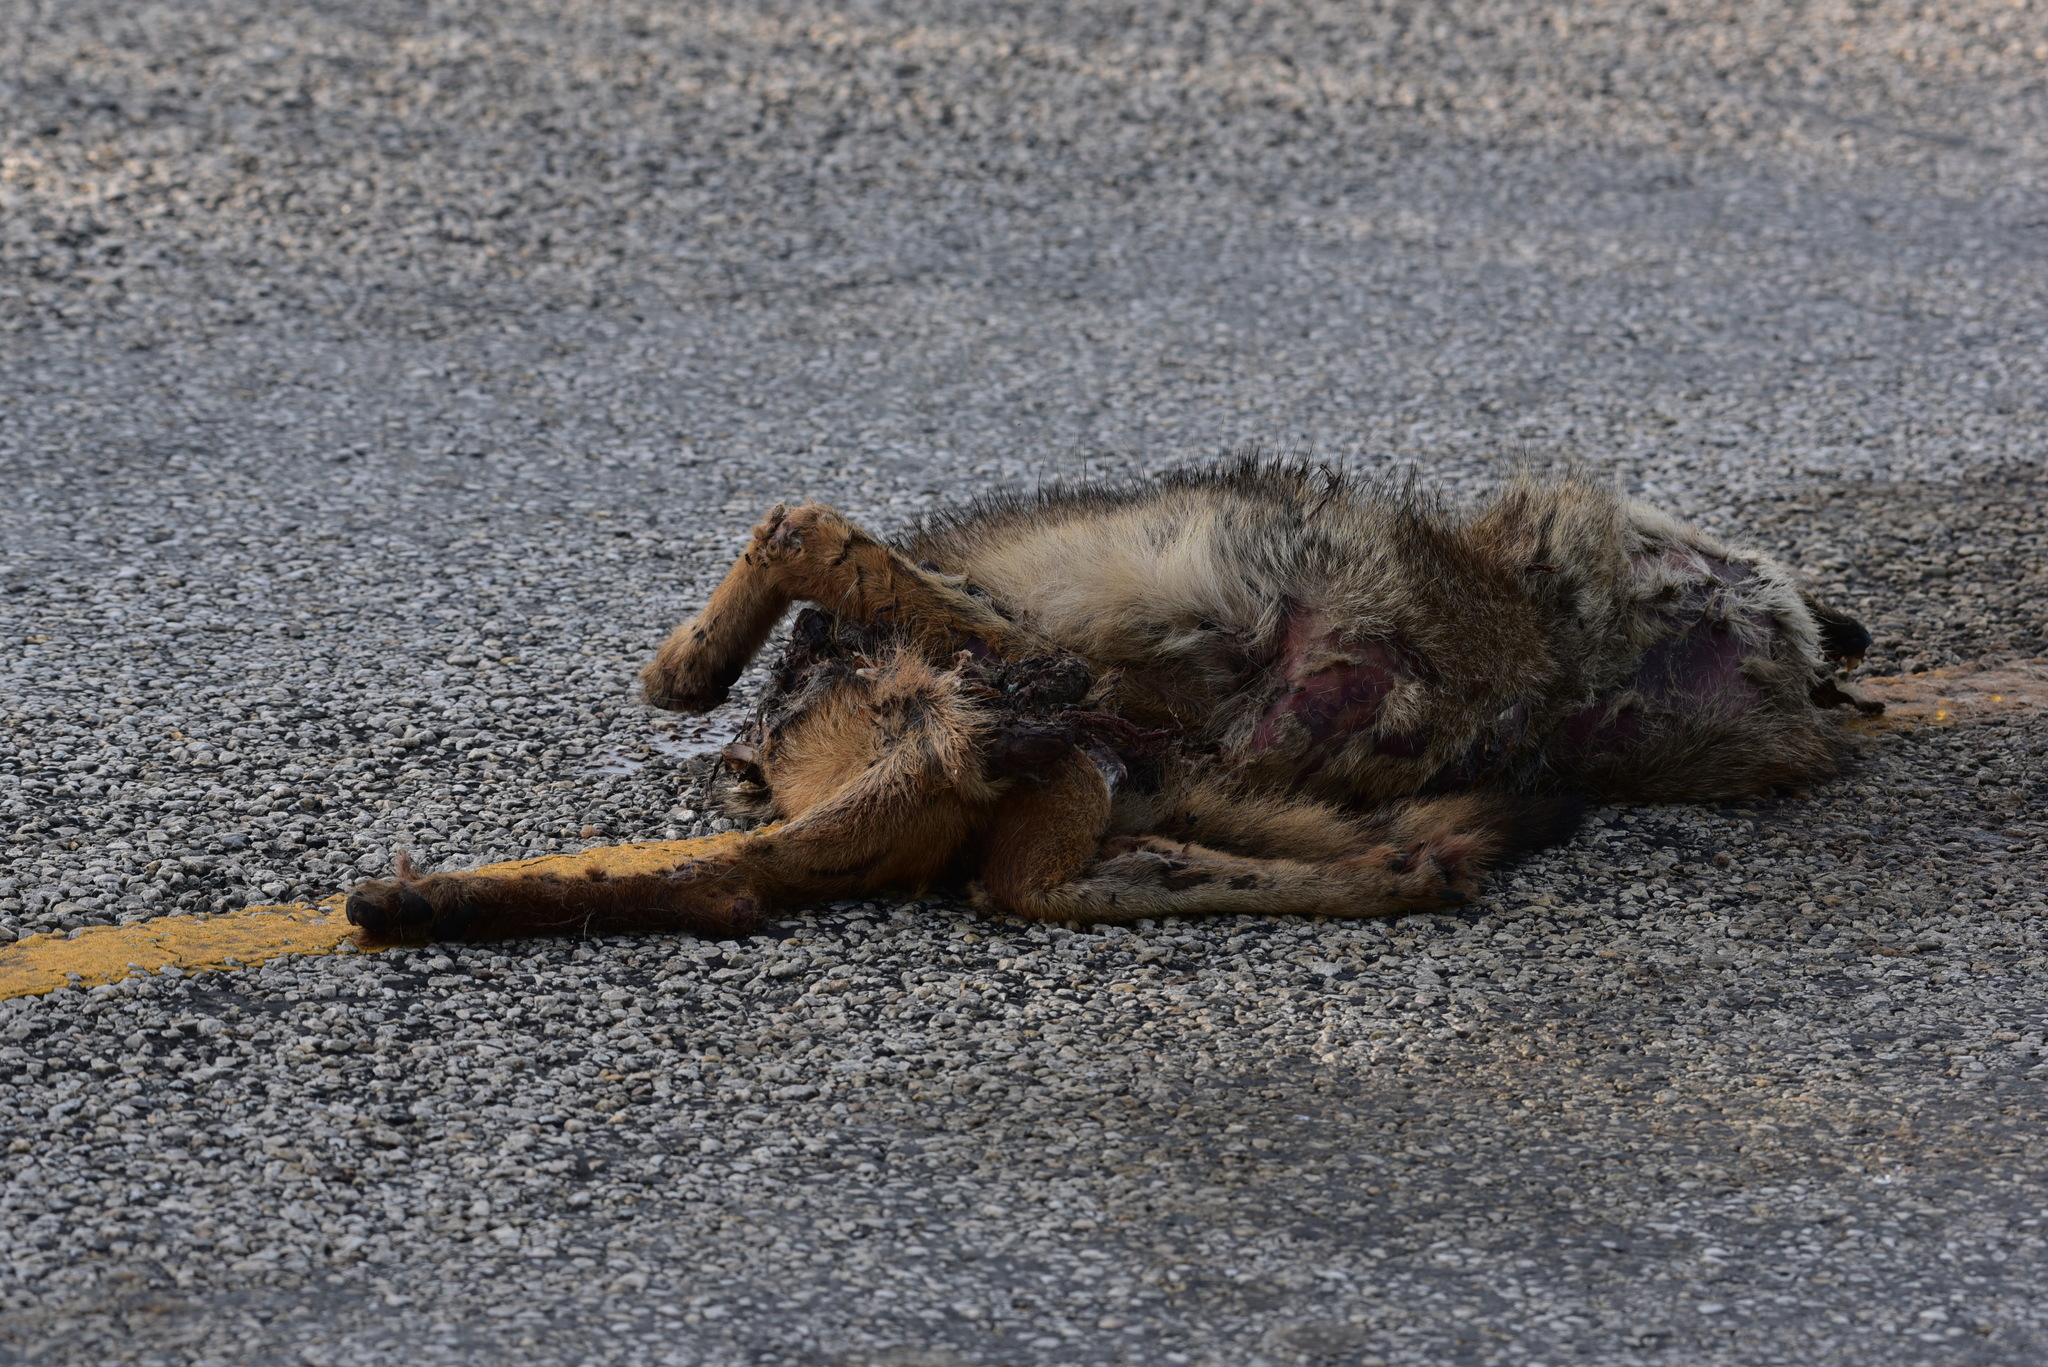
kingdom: Animalia
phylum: Chordata
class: Mammalia
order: Carnivora
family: Canidae
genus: Canis
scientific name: Canis latrans
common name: Coyote
